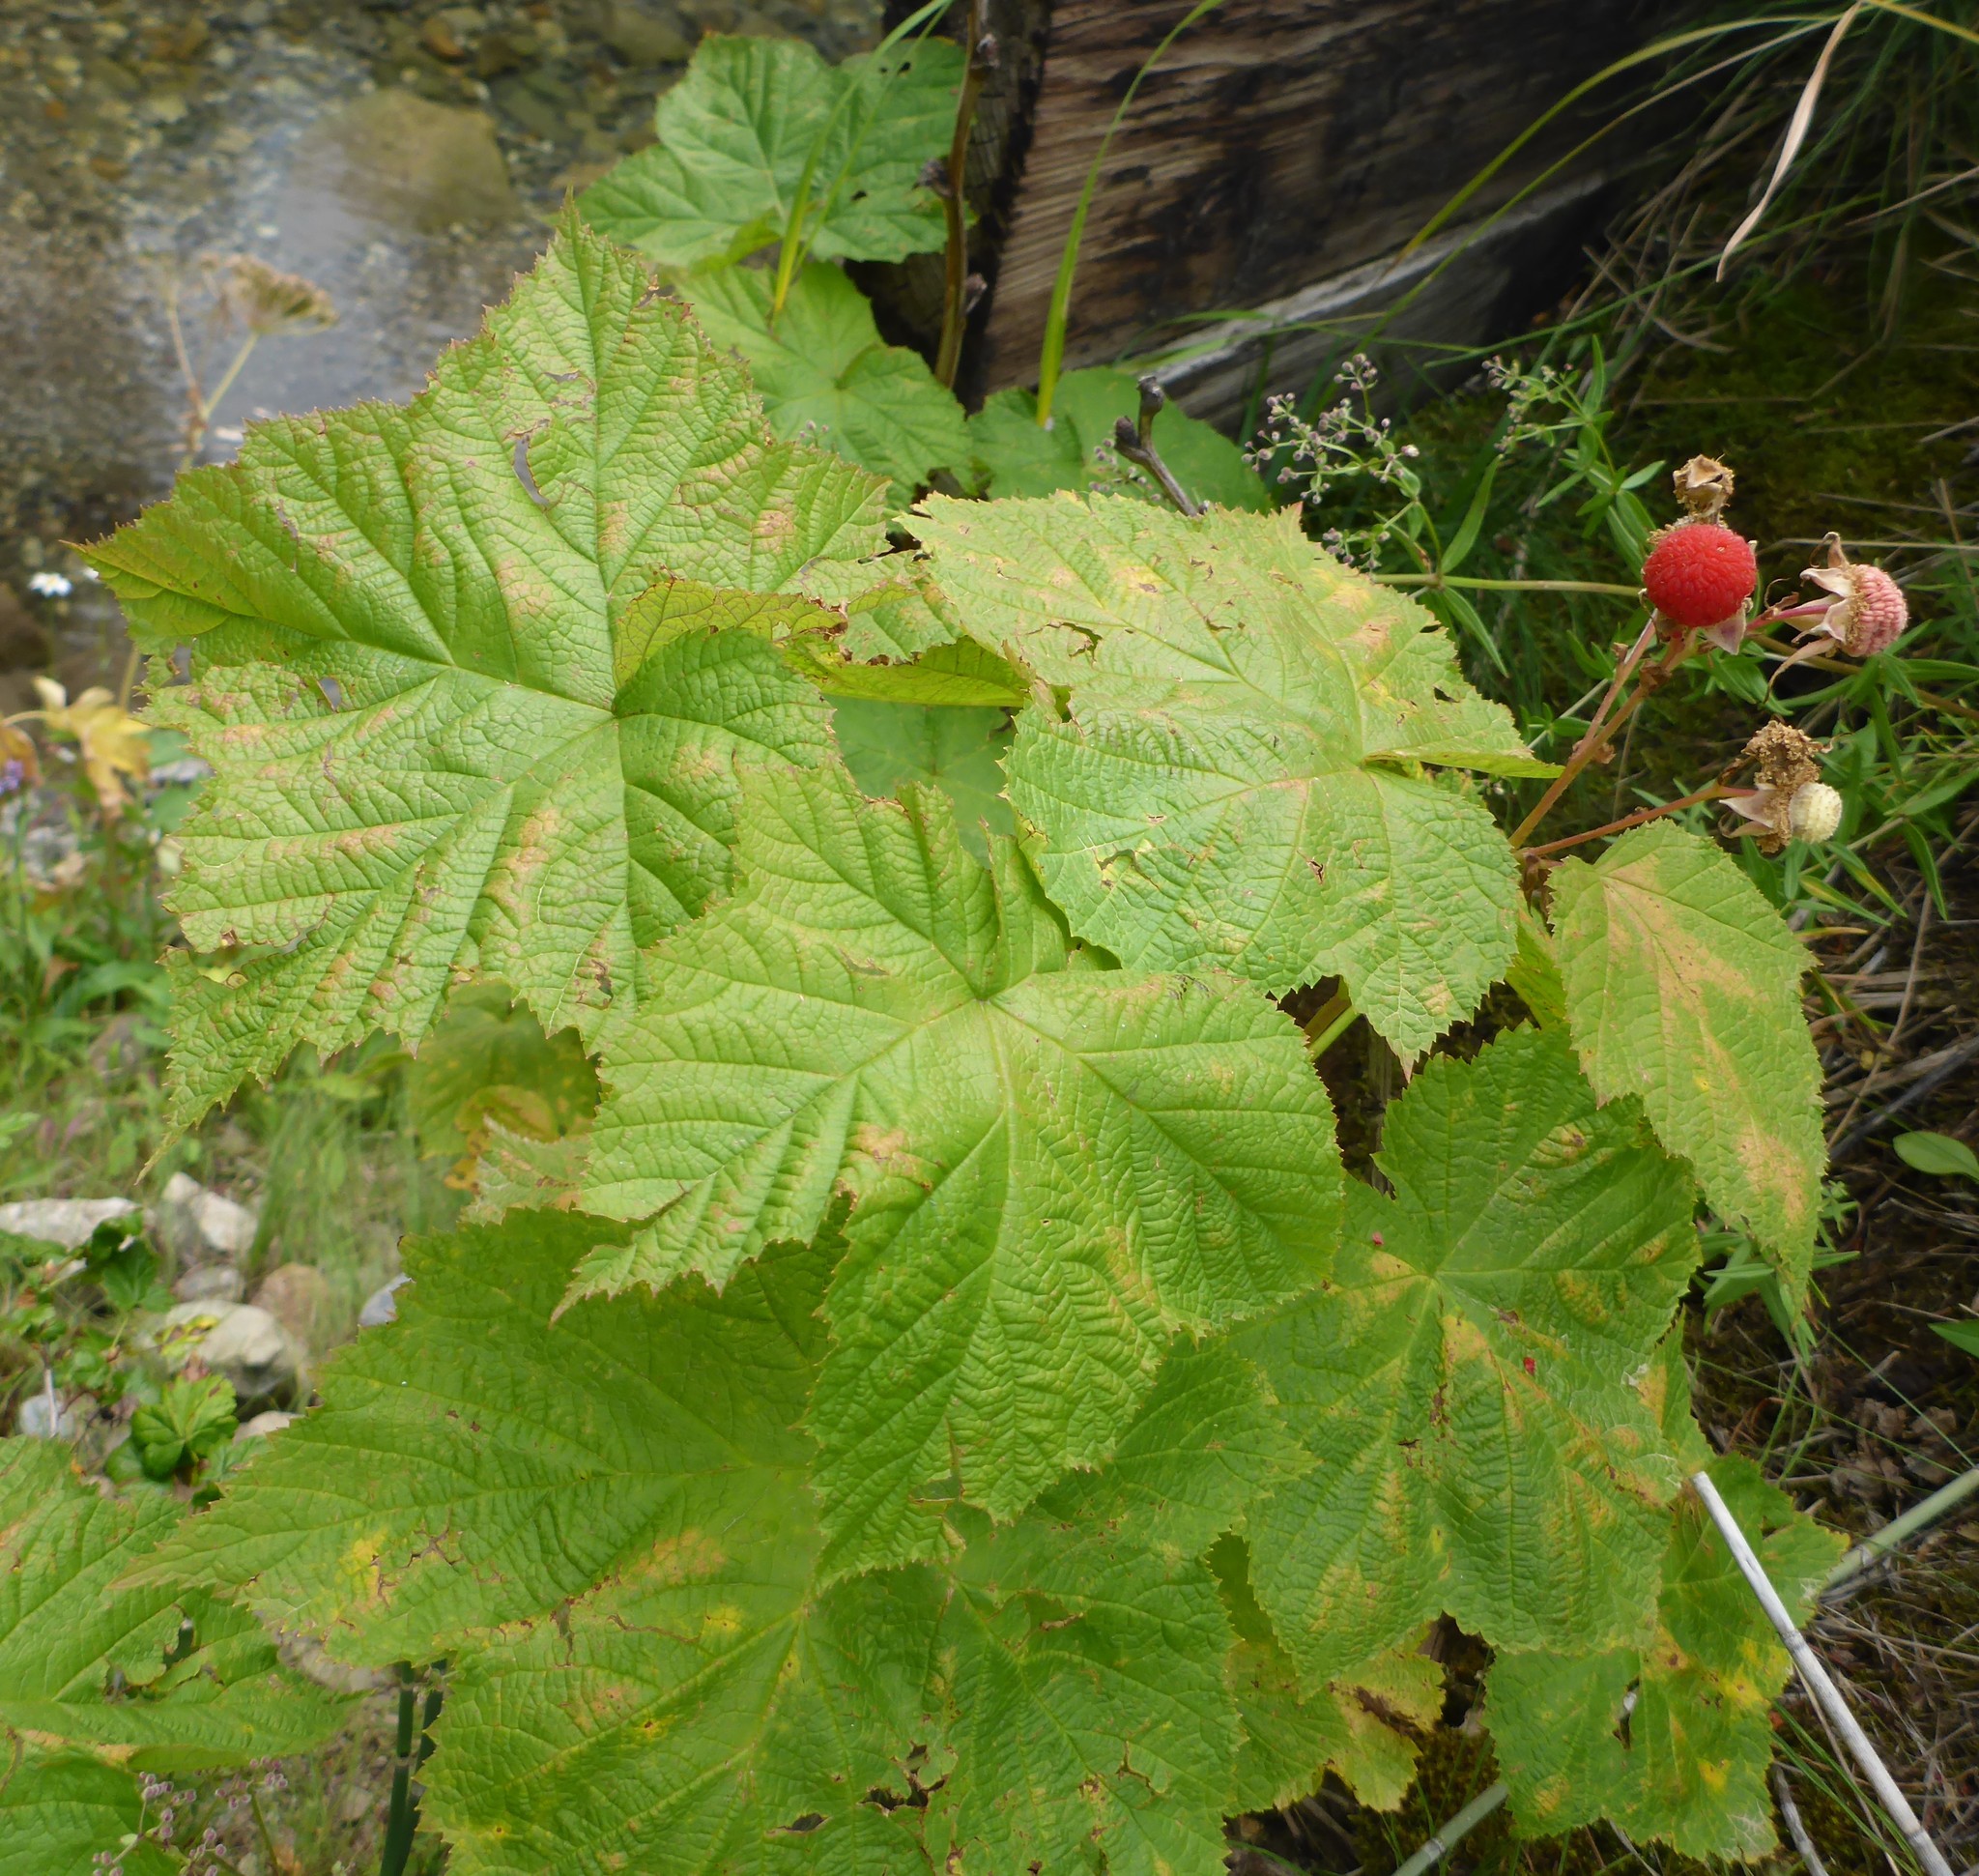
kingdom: Plantae
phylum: Tracheophyta
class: Magnoliopsida
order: Rosales
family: Rosaceae
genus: Rubus
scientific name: Rubus parviflorus
